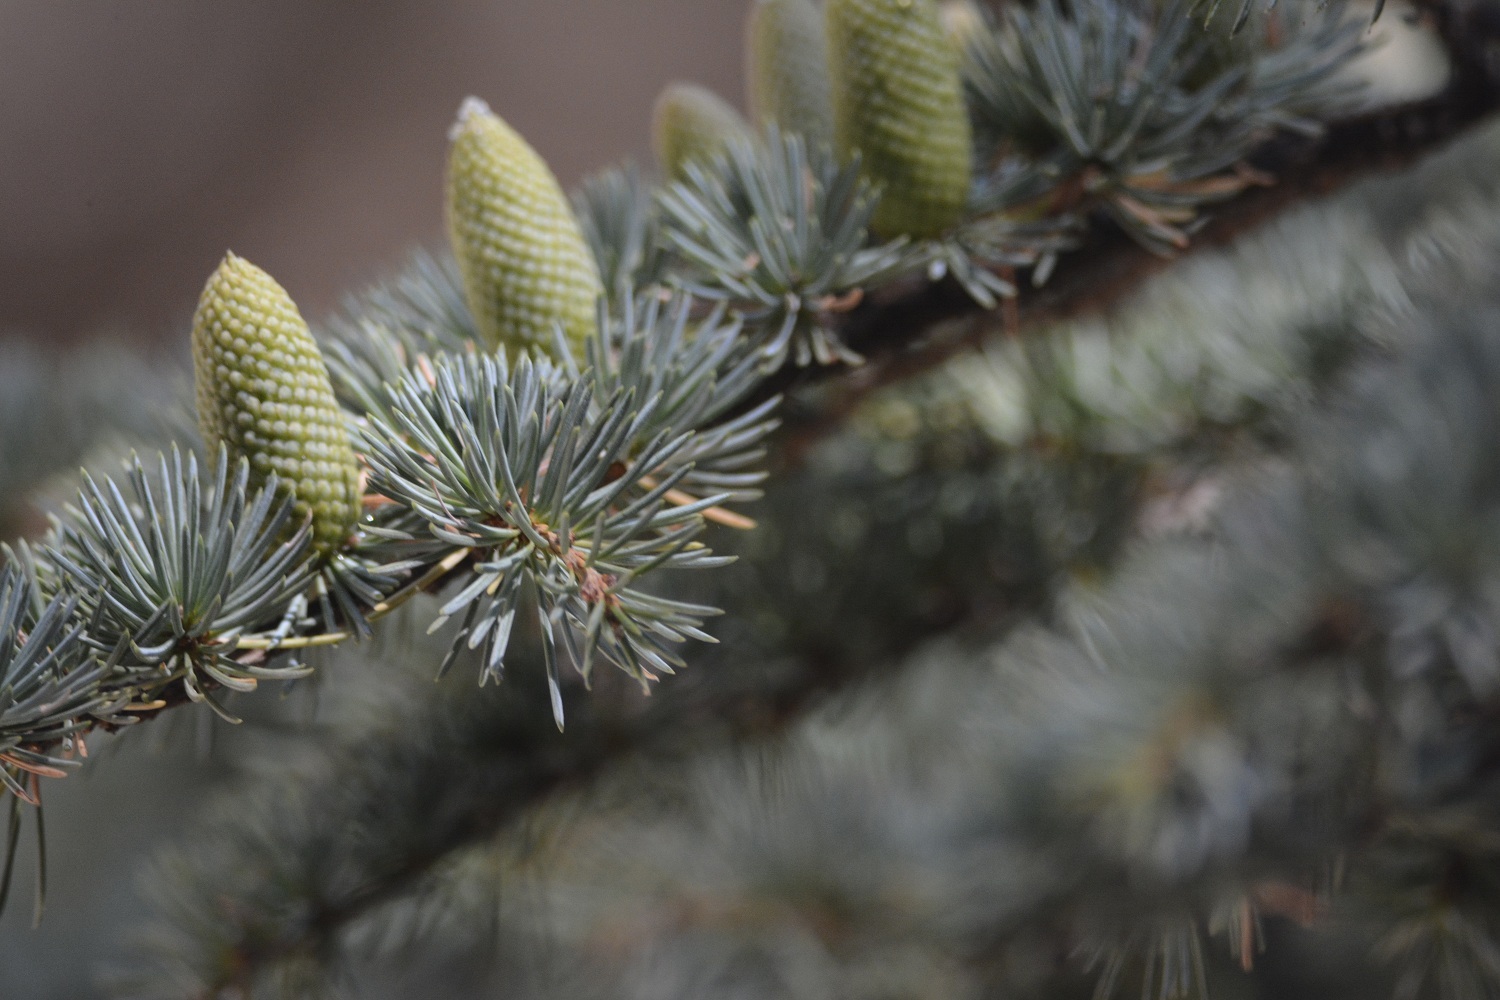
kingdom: Plantae
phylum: Tracheophyta
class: Pinopsida
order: Pinales
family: Pinaceae
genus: Cedrus
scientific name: Cedrus atlantica
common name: Atlas cedar
